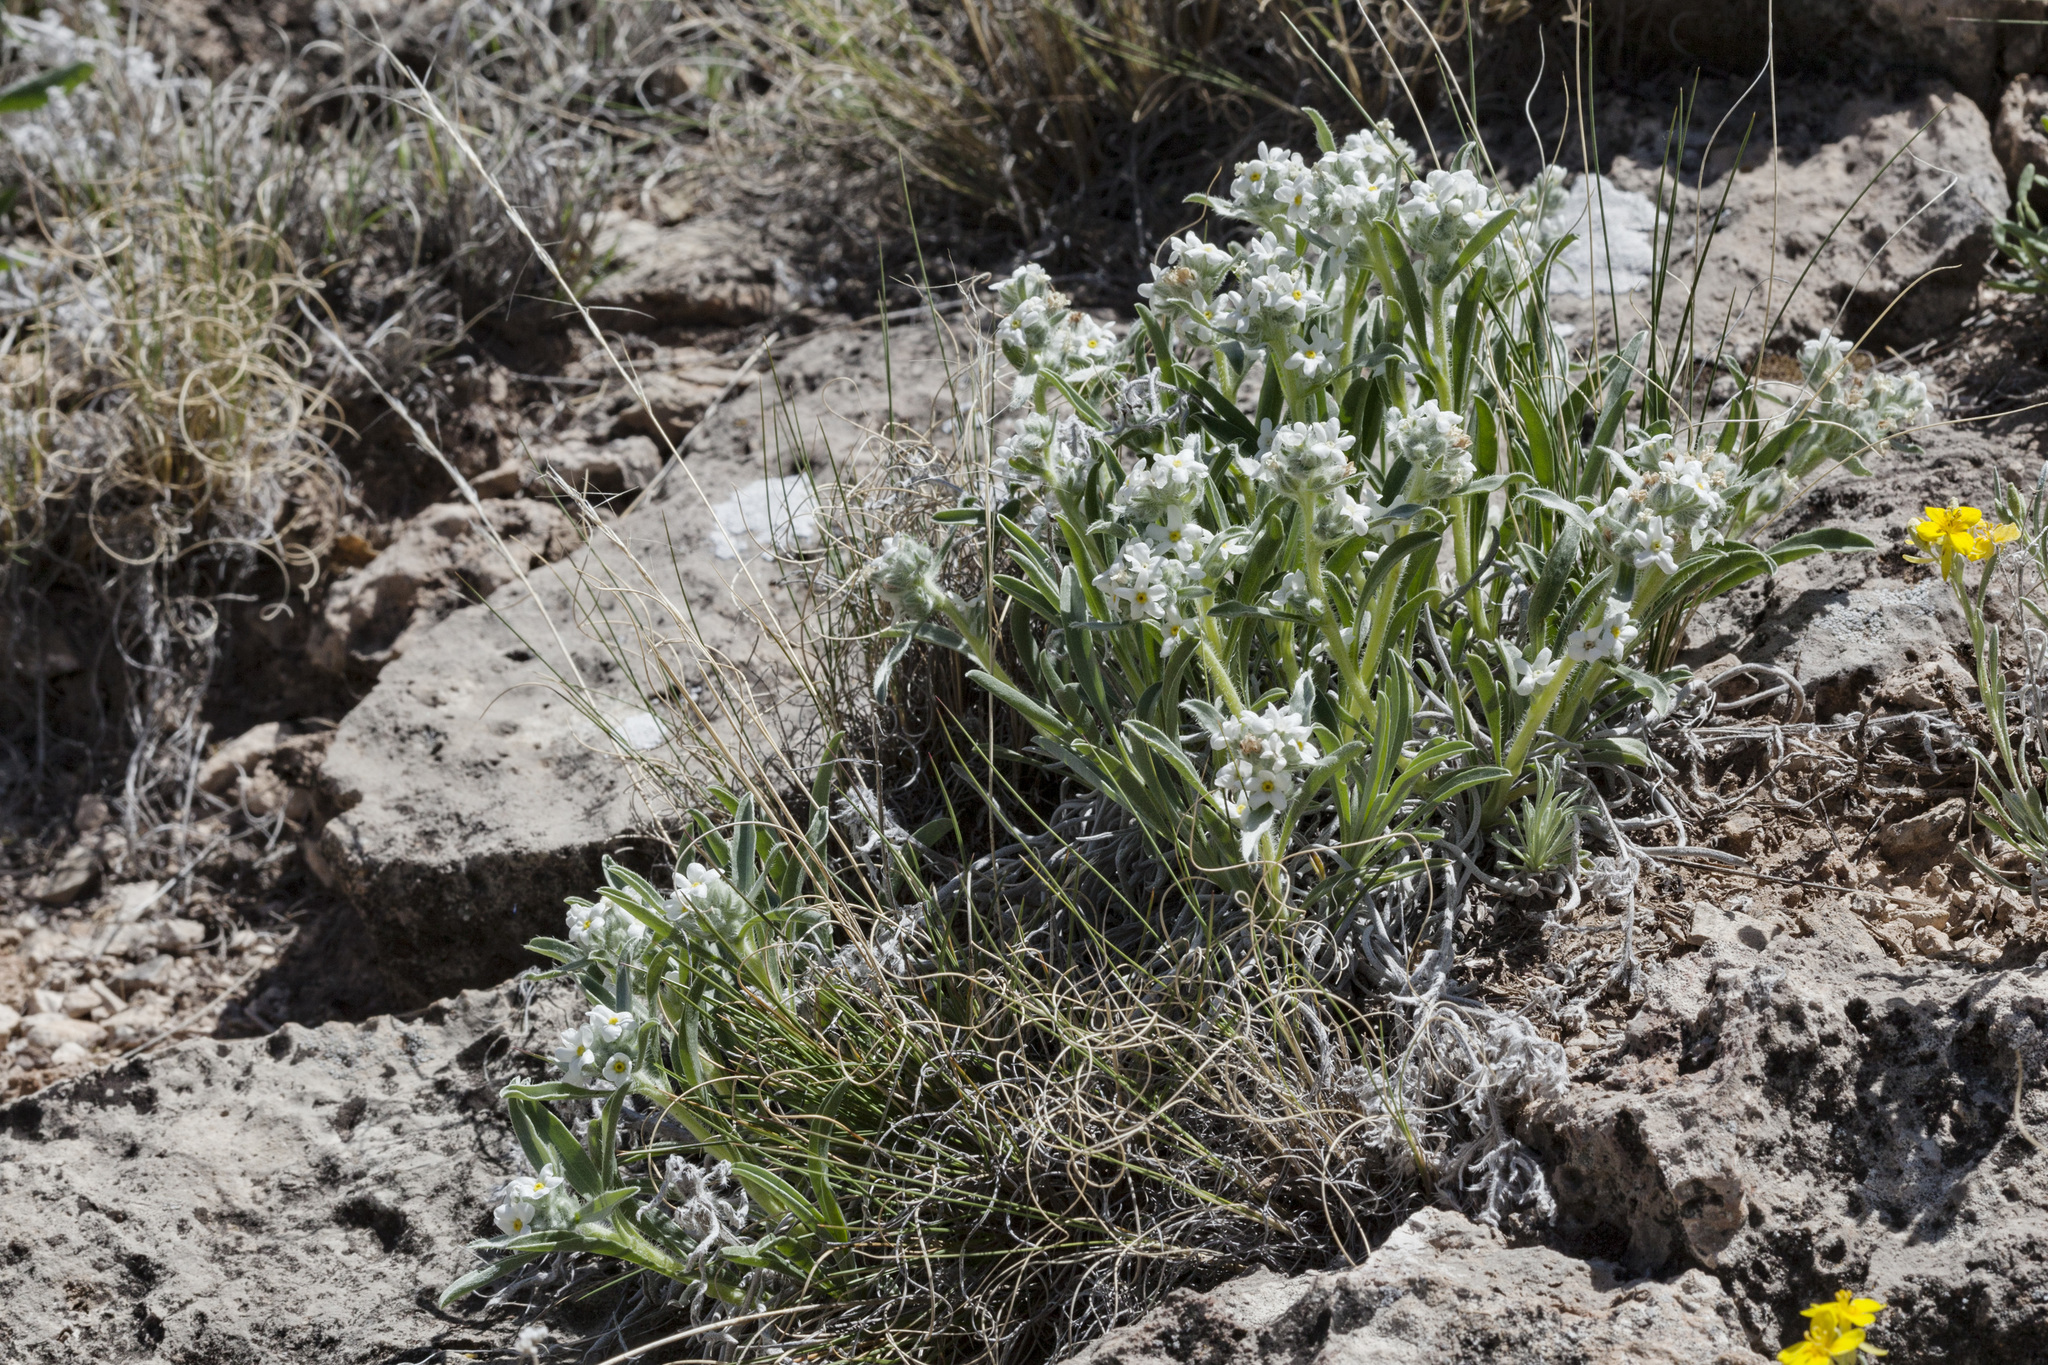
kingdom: Plantae
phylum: Tracheophyta
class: Magnoliopsida
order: Boraginales
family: Boraginaceae
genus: Oreocarya
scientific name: Oreocarya suffruticosa
